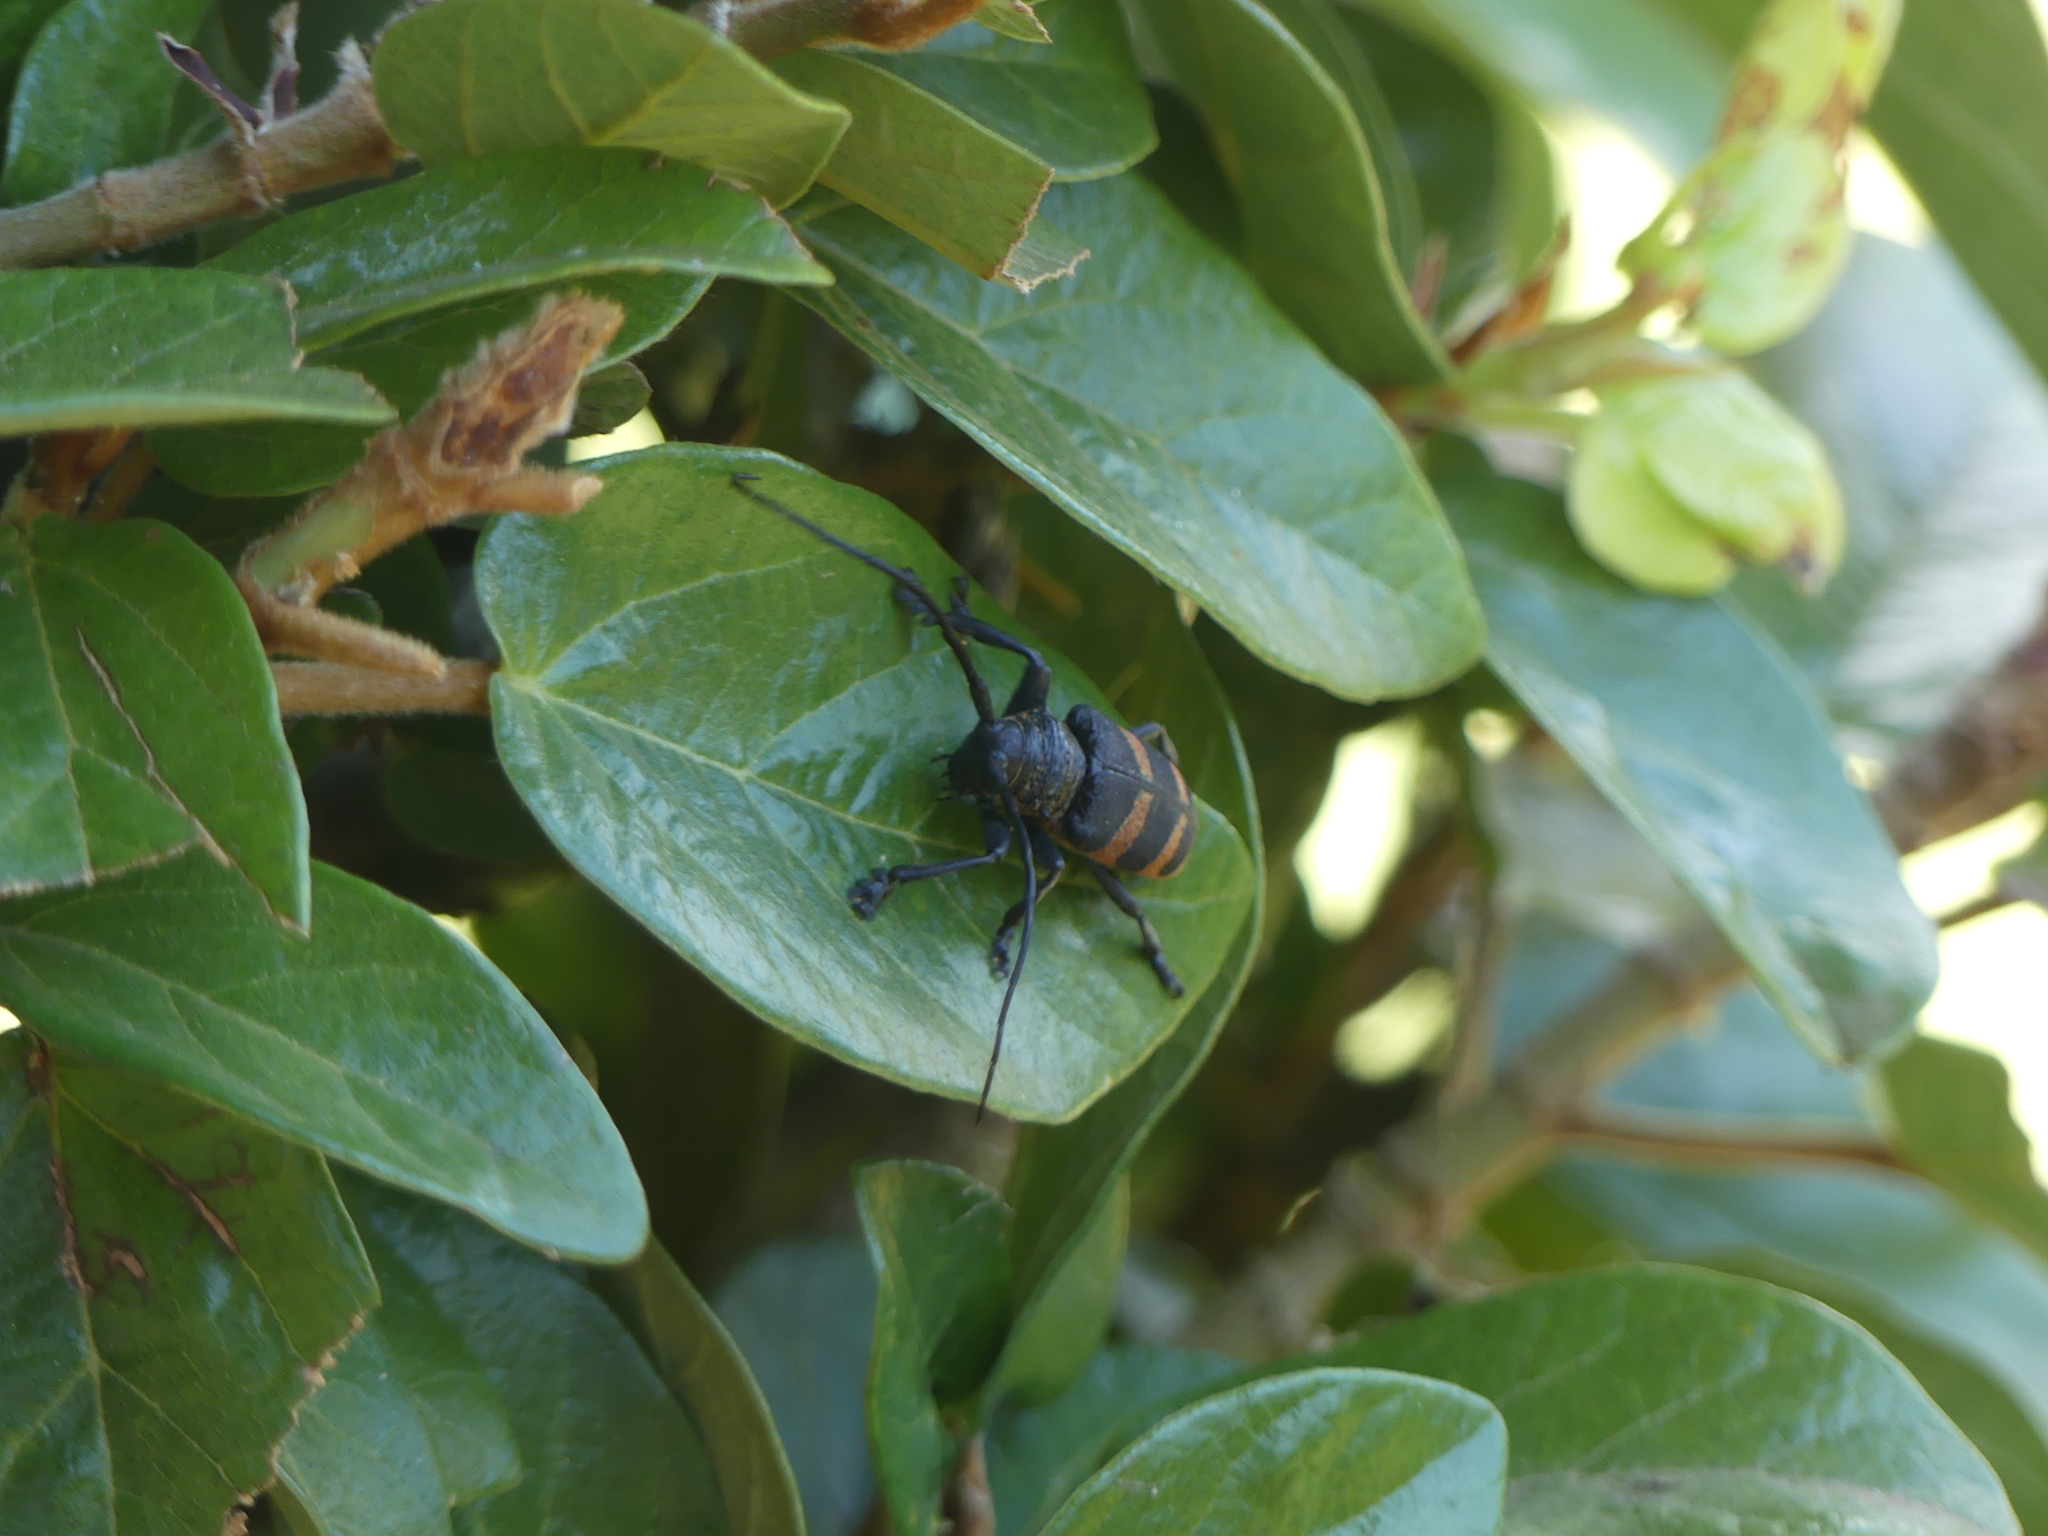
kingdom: Animalia
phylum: Arthropoda
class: Insecta
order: Coleoptera
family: Cerambycidae
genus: Pycnopsis
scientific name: Pycnopsis brachyptera
